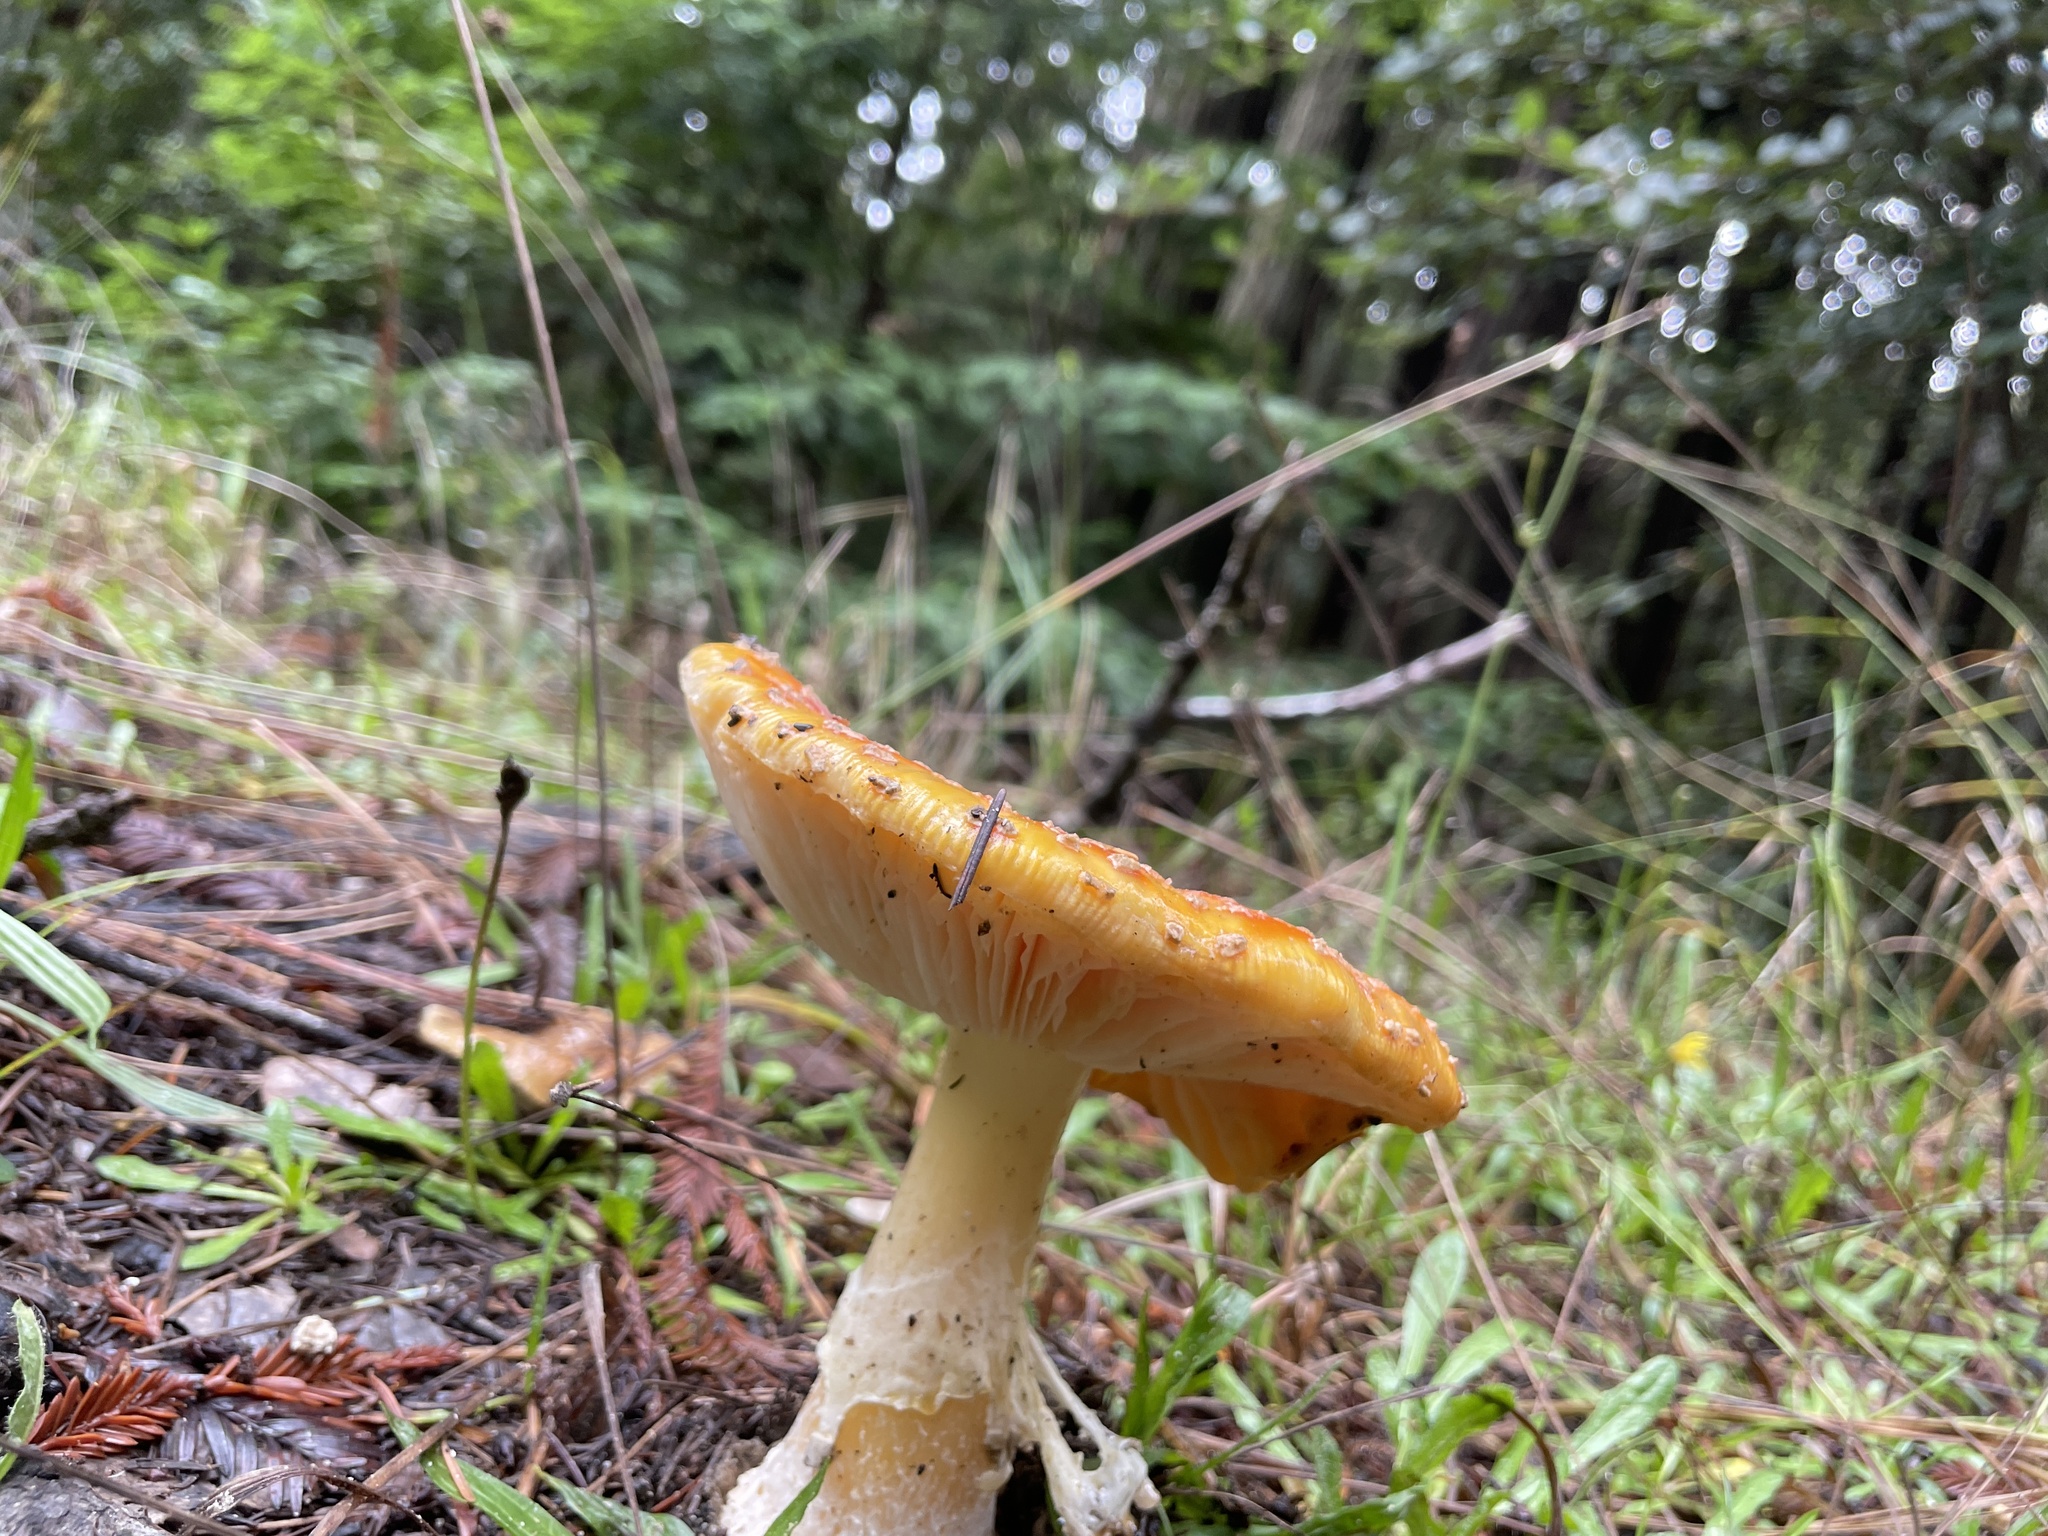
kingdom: Fungi
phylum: Basidiomycota
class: Agaricomycetes
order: Agaricales
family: Amanitaceae
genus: Amanita
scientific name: Amanita muscaria
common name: Fly agaric
